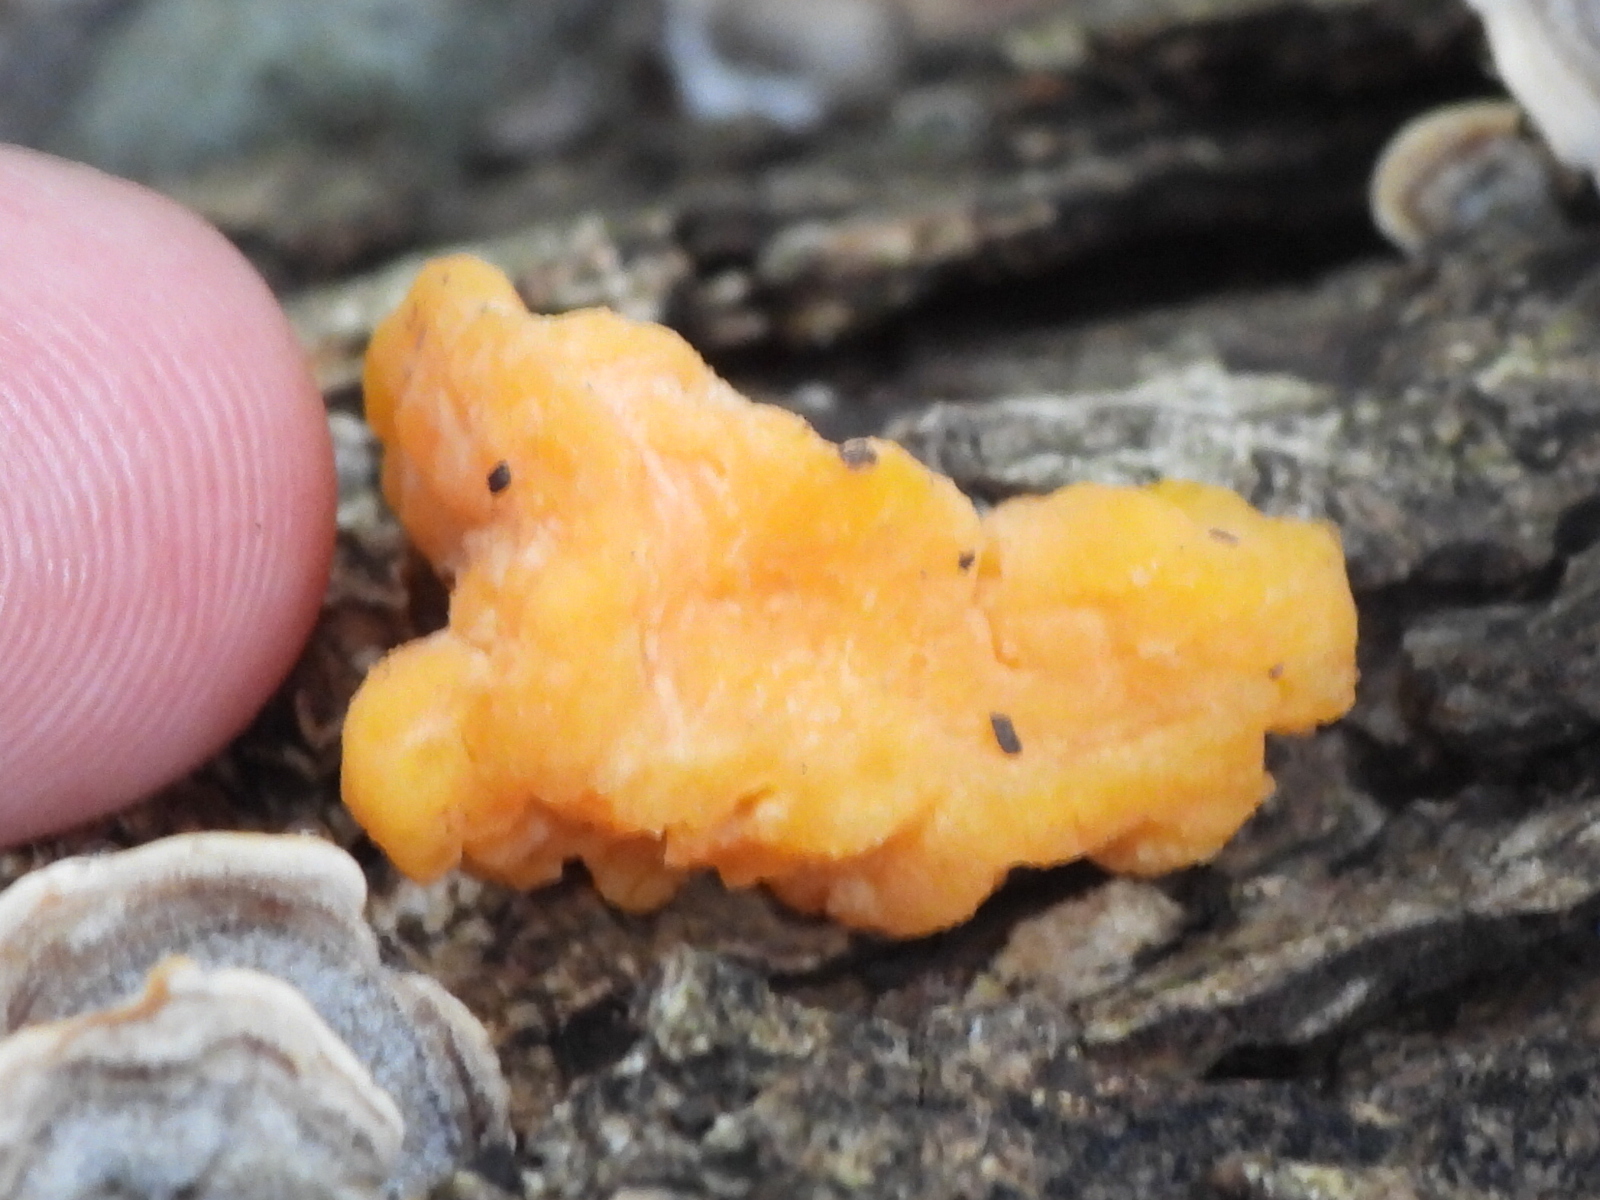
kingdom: Fungi
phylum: Basidiomycota
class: Tremellomycetes
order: Tremellales
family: Naemateliaceae
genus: Naematelia
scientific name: Naematelia aurantia
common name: Golden ear
